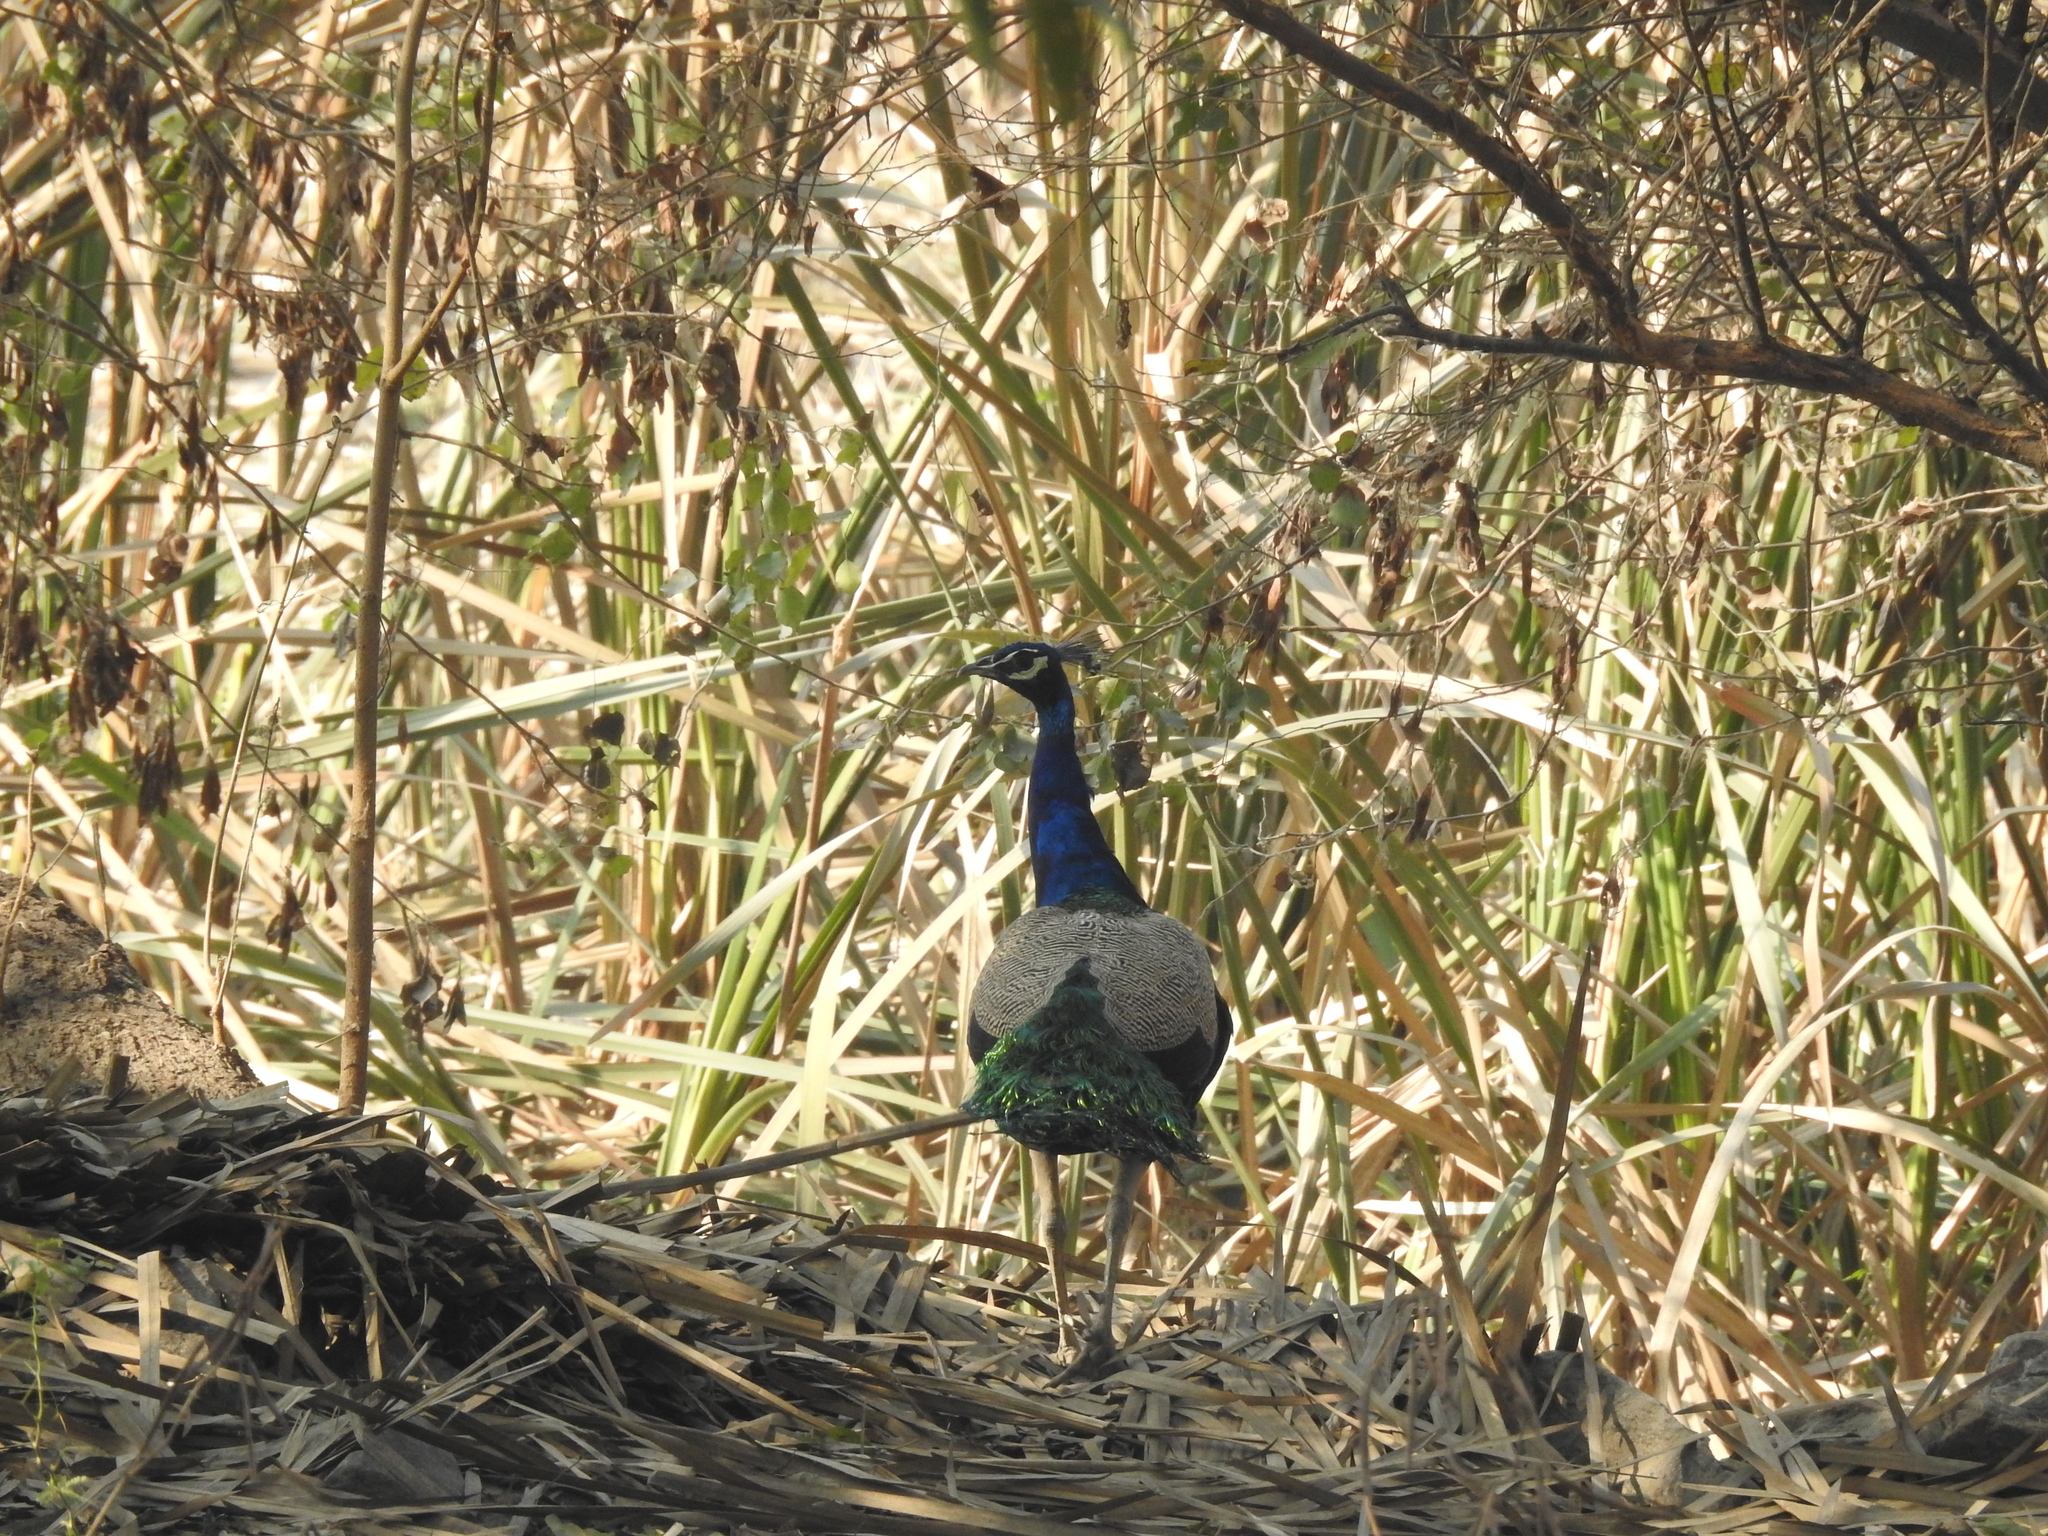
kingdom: Animalia
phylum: Chordata
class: Aves
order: Galliformes
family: Phasianidae
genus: Pavo
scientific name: Pavo cristatus
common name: Indian peafowl
